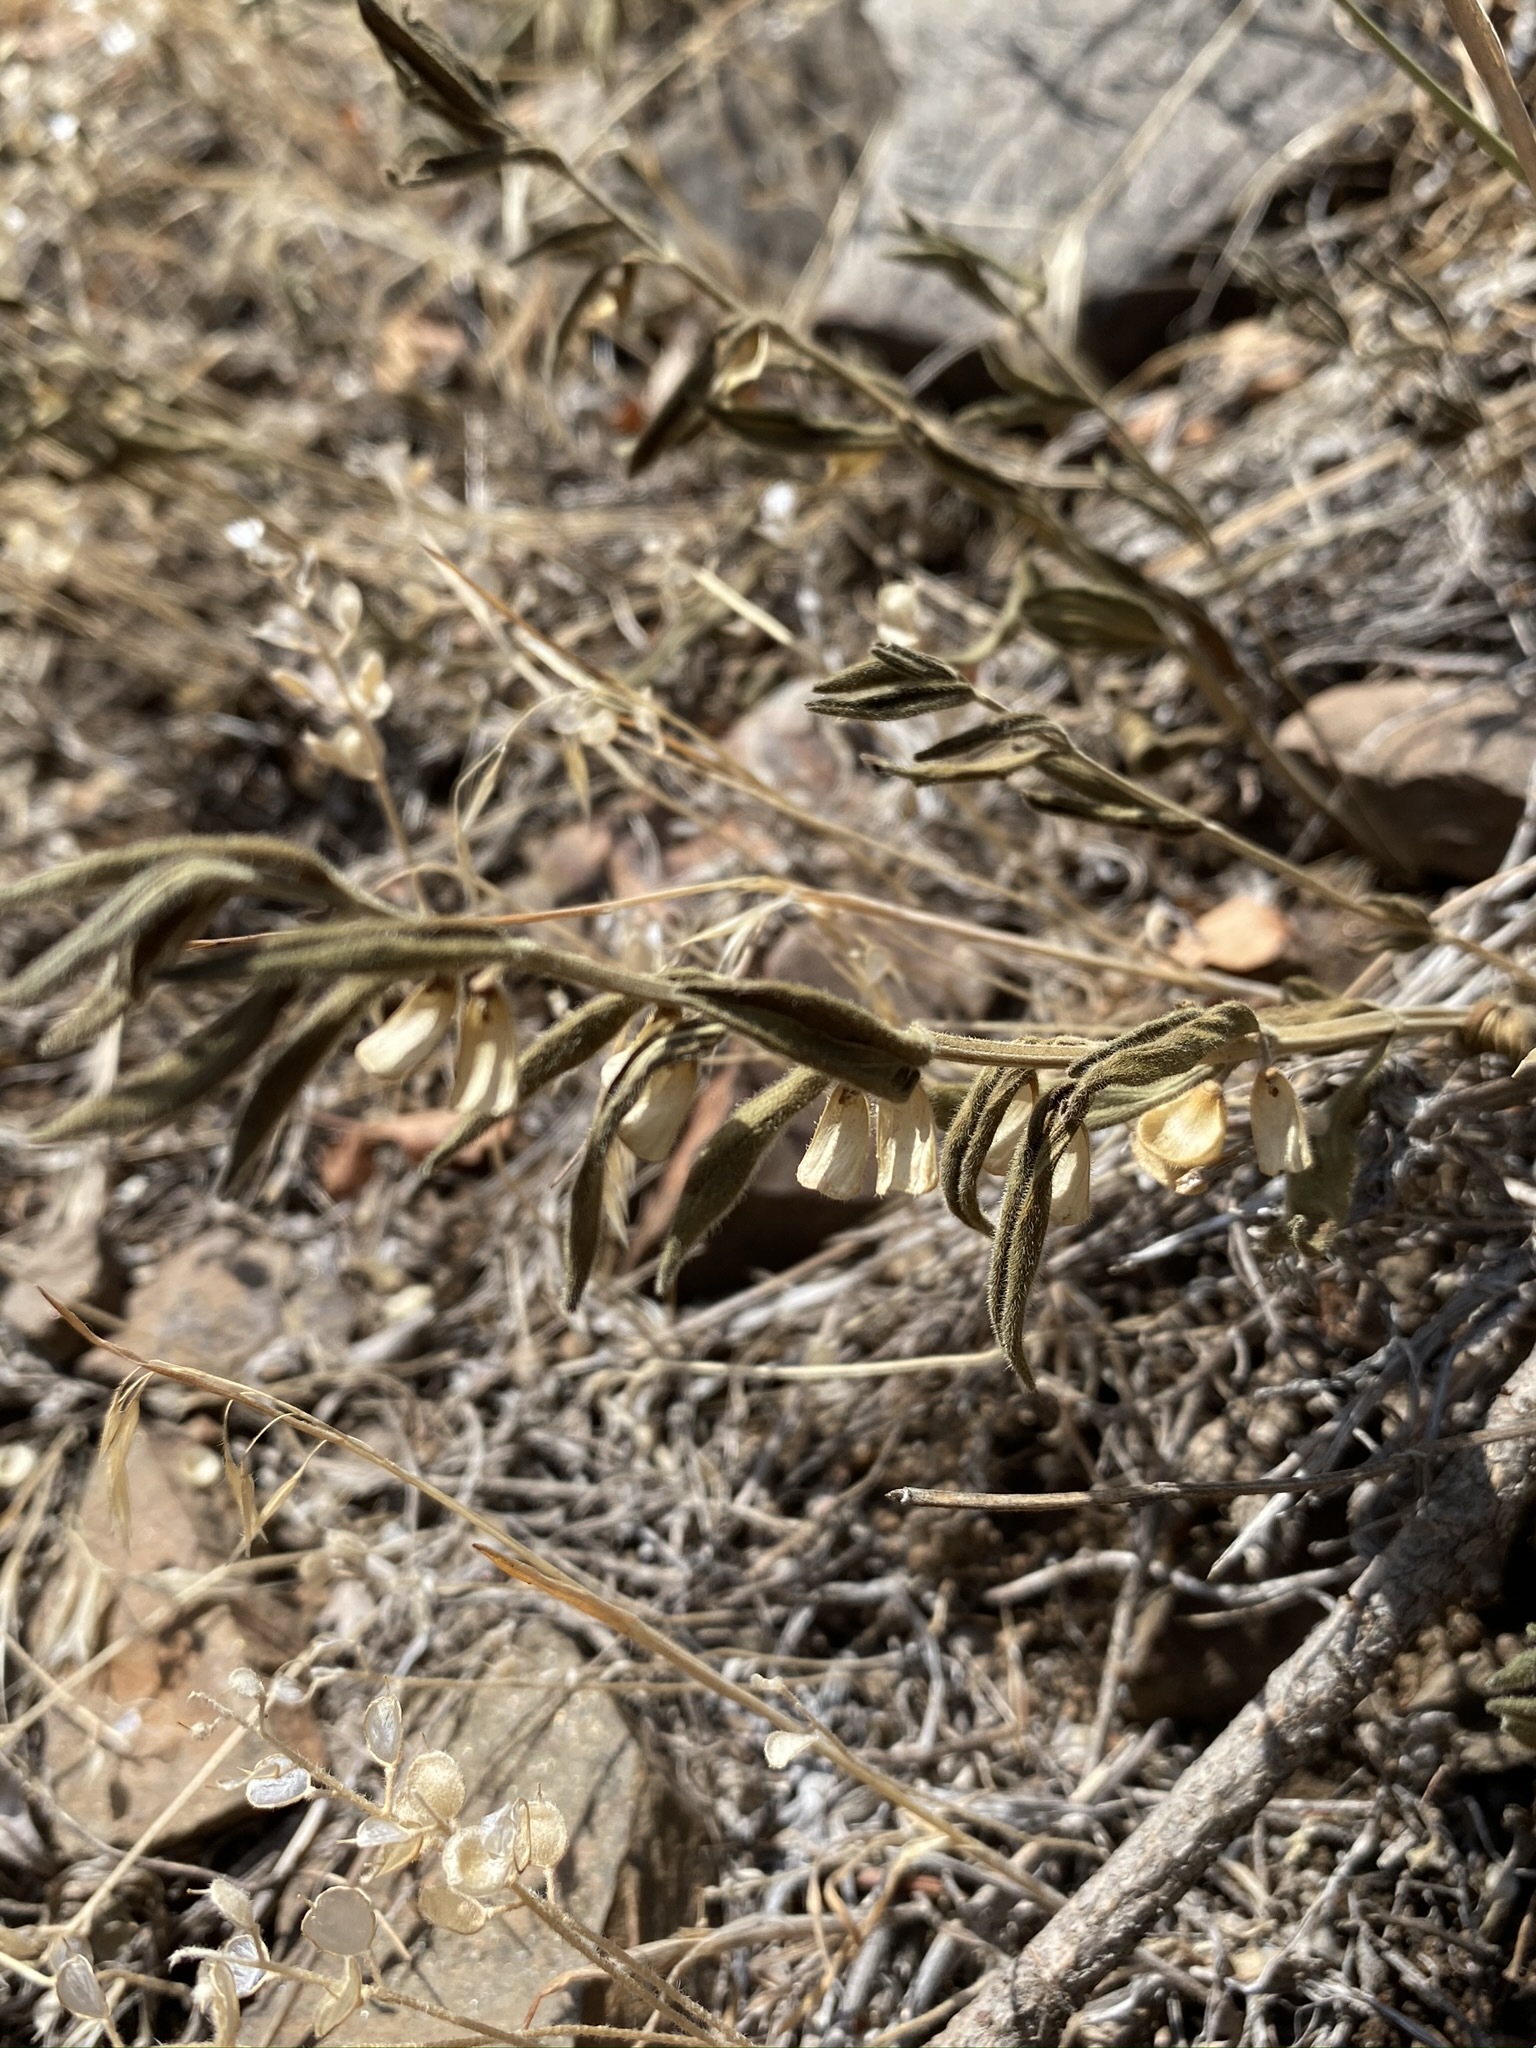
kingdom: Plantae
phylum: Tracheophyta
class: Magnoliopsida
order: Lamiales
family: Lamiaceae
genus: Scutellaria
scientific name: Scutellaria brittonii
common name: Britton's skullcap
